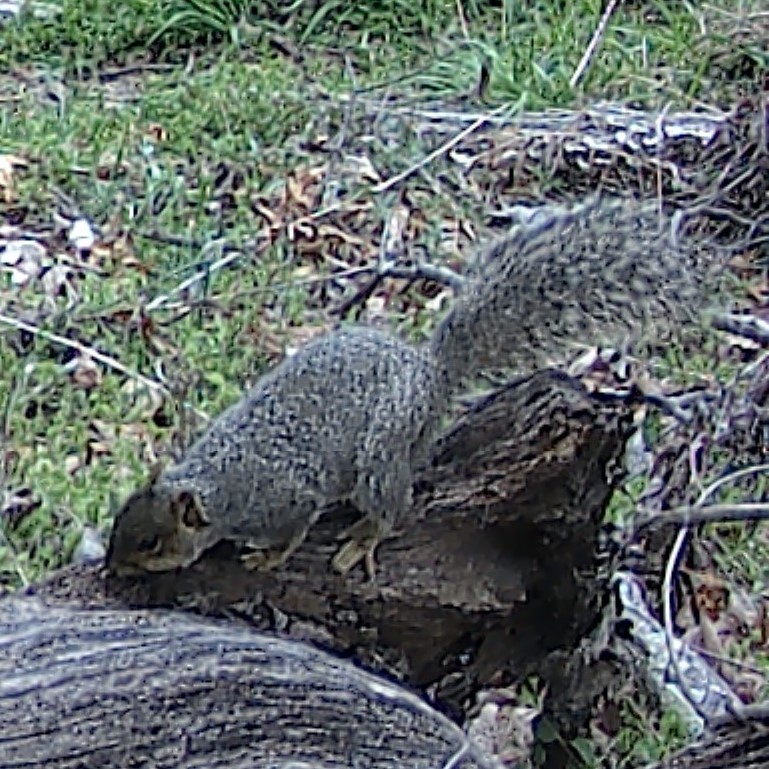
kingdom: Animalia
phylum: Chordata
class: Mammalia
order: Rodentia
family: Sciuridae
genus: Sciurus
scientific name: Sciurus carolinensis
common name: Eastern gray squirrel
